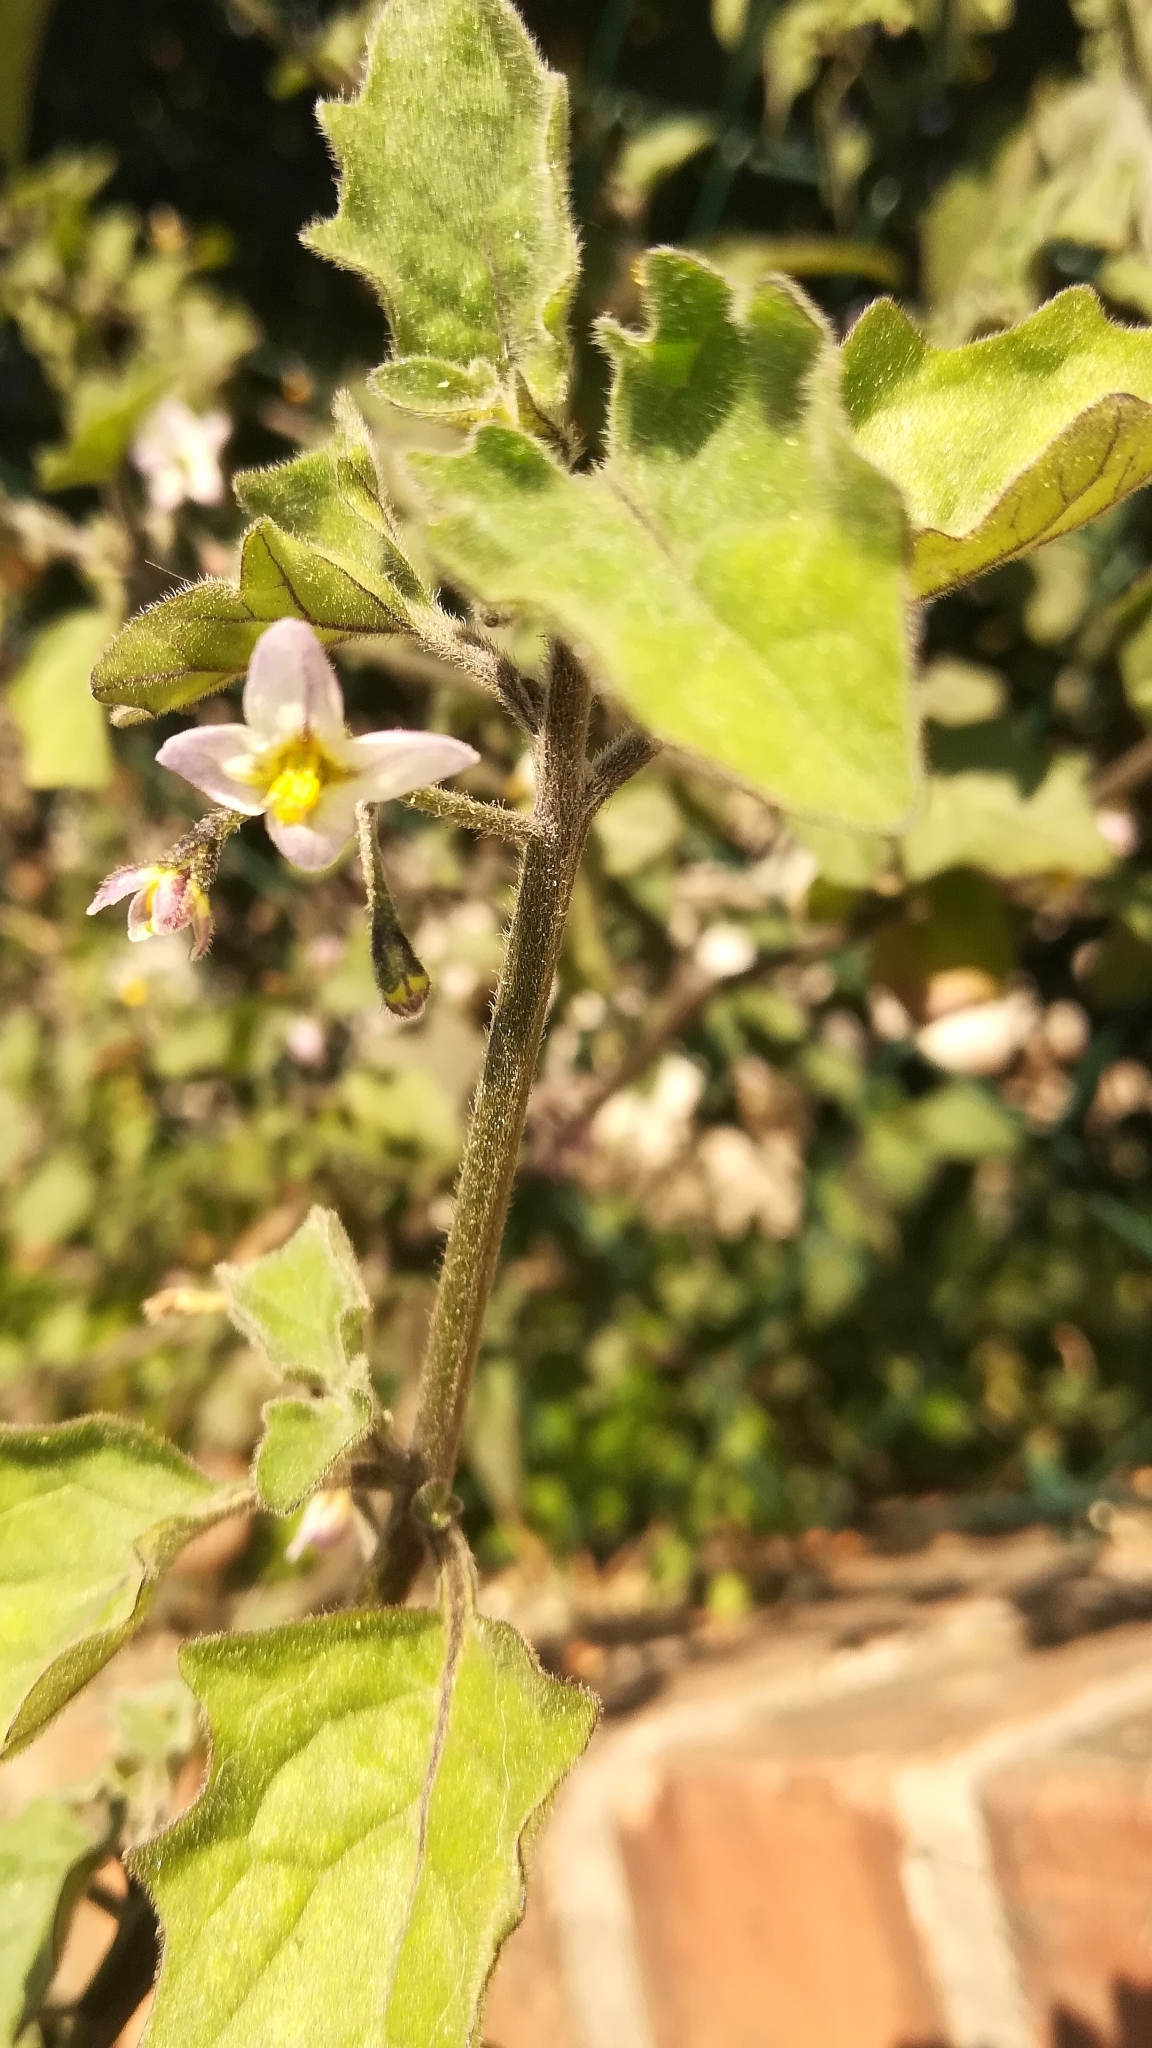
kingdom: Plantae
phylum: Tracheophyta
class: Magnoliopsida
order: Solanales
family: Solanaceae
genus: Solanum
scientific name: Solanum villosum
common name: Red nightshade
